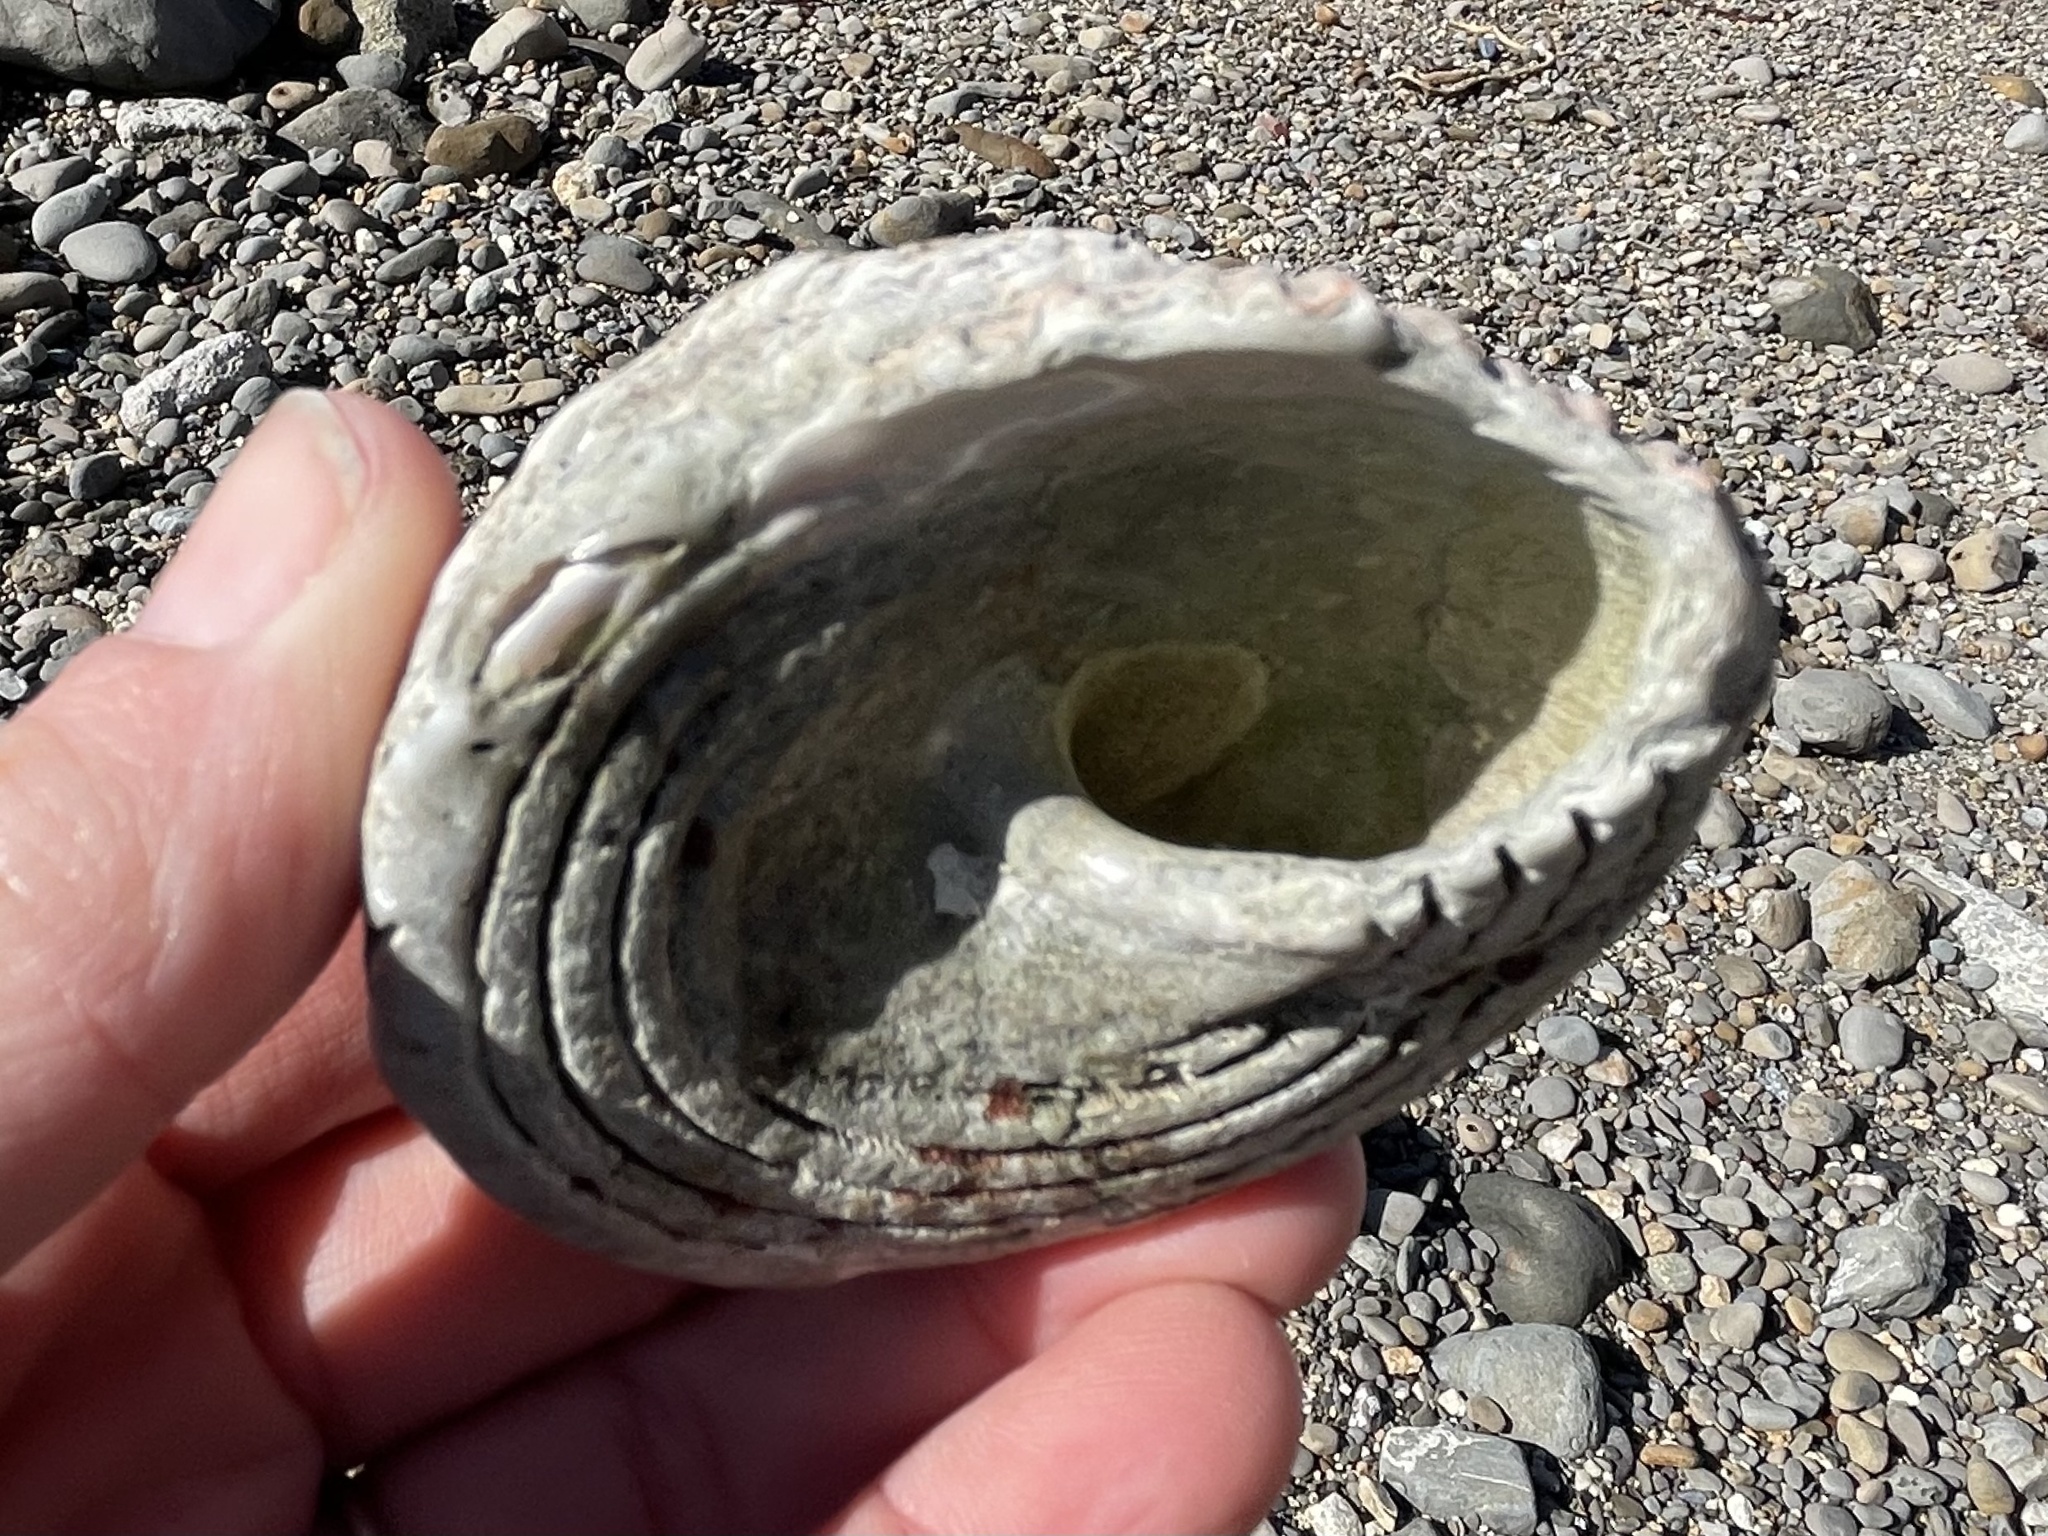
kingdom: Animalia
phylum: Mollusca
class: Gastropoda
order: Trochida
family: Turbinidae
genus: Pomaulax
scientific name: Pomaulax gibberosus
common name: Red turban
